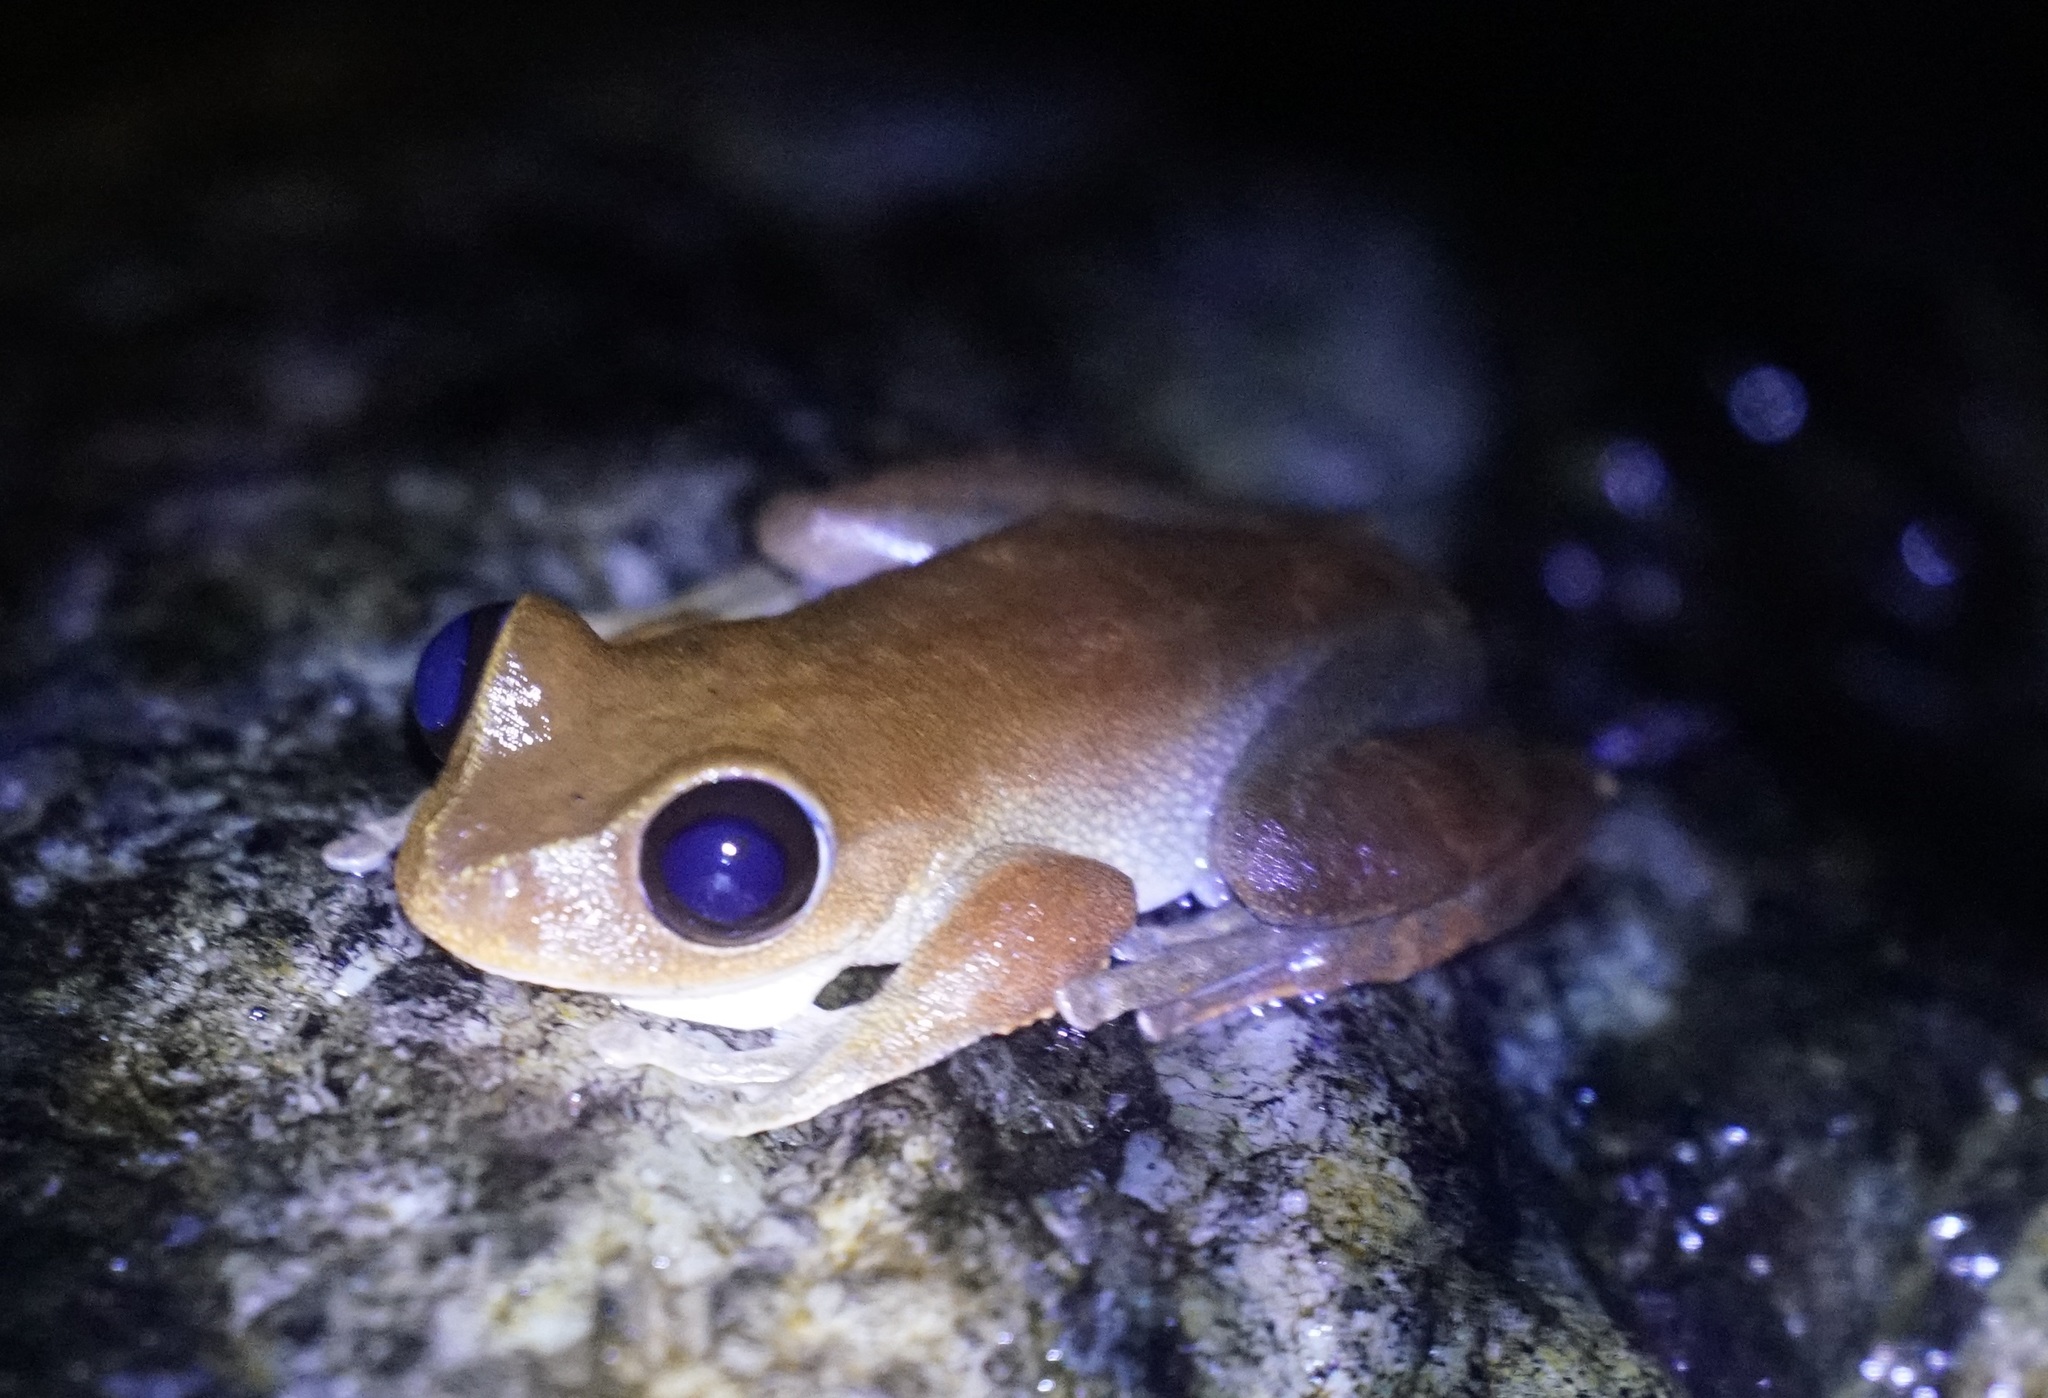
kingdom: Animalia
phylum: Chordata
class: Amphibia
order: Anura
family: Pelodryadidae
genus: Ranoidea
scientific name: Ranoidea dayi
